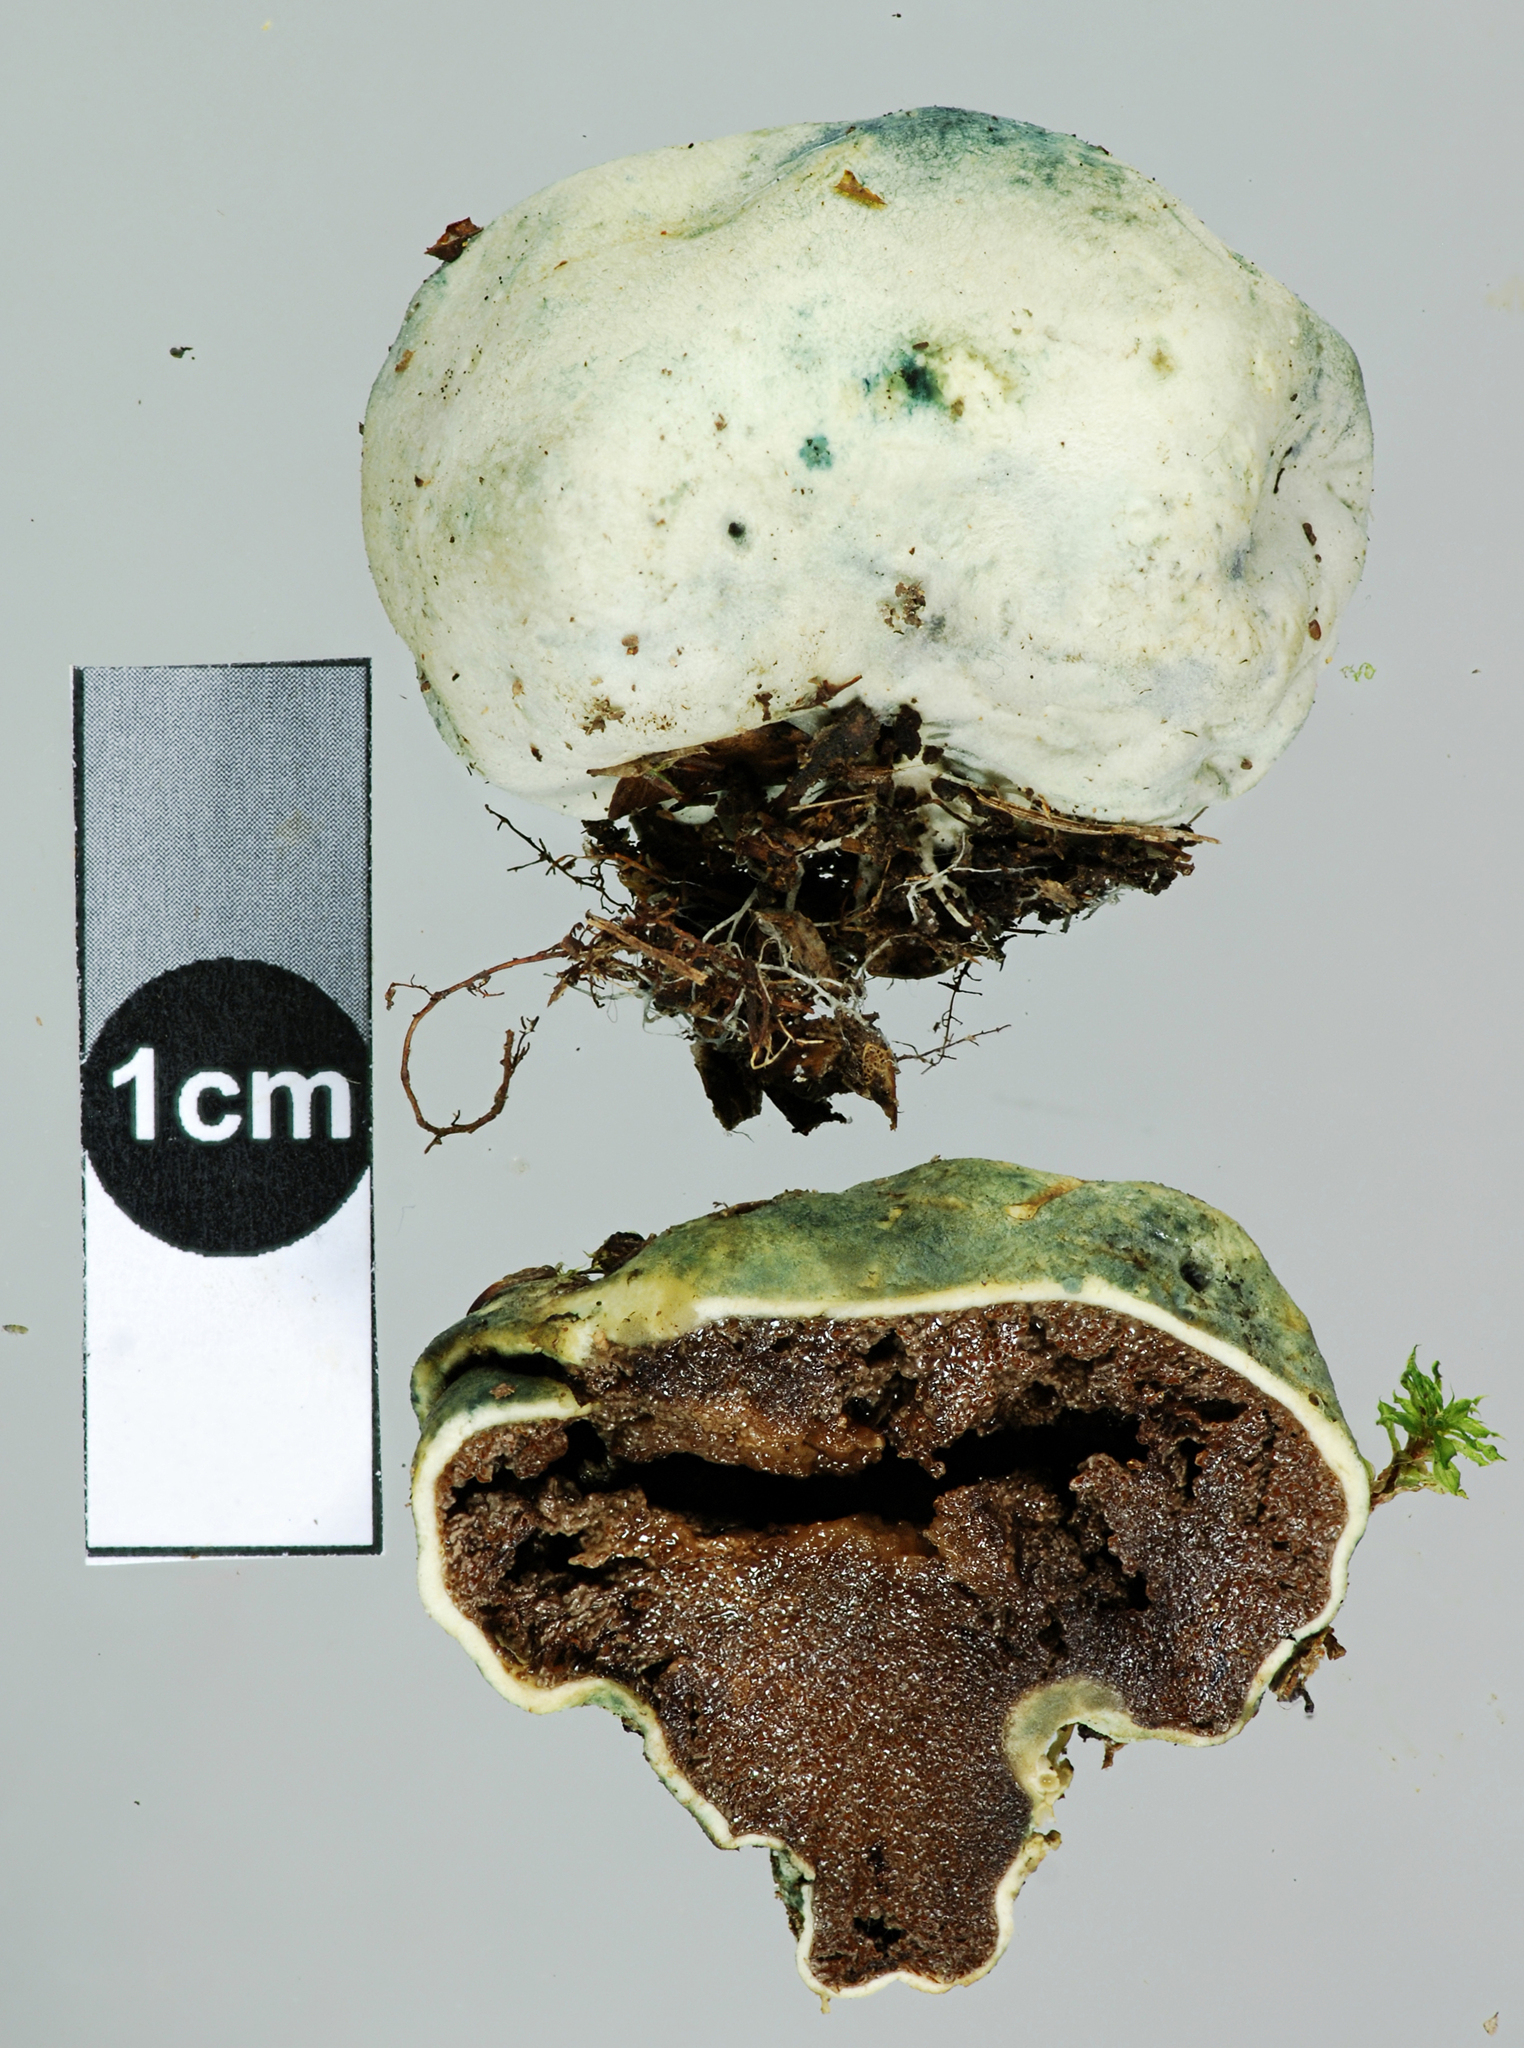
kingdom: Fungi
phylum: Basidiomycota
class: Agaricomycetes
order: Boletales
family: Boletaceae
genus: Leccinum
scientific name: Leccinum pachyderme
